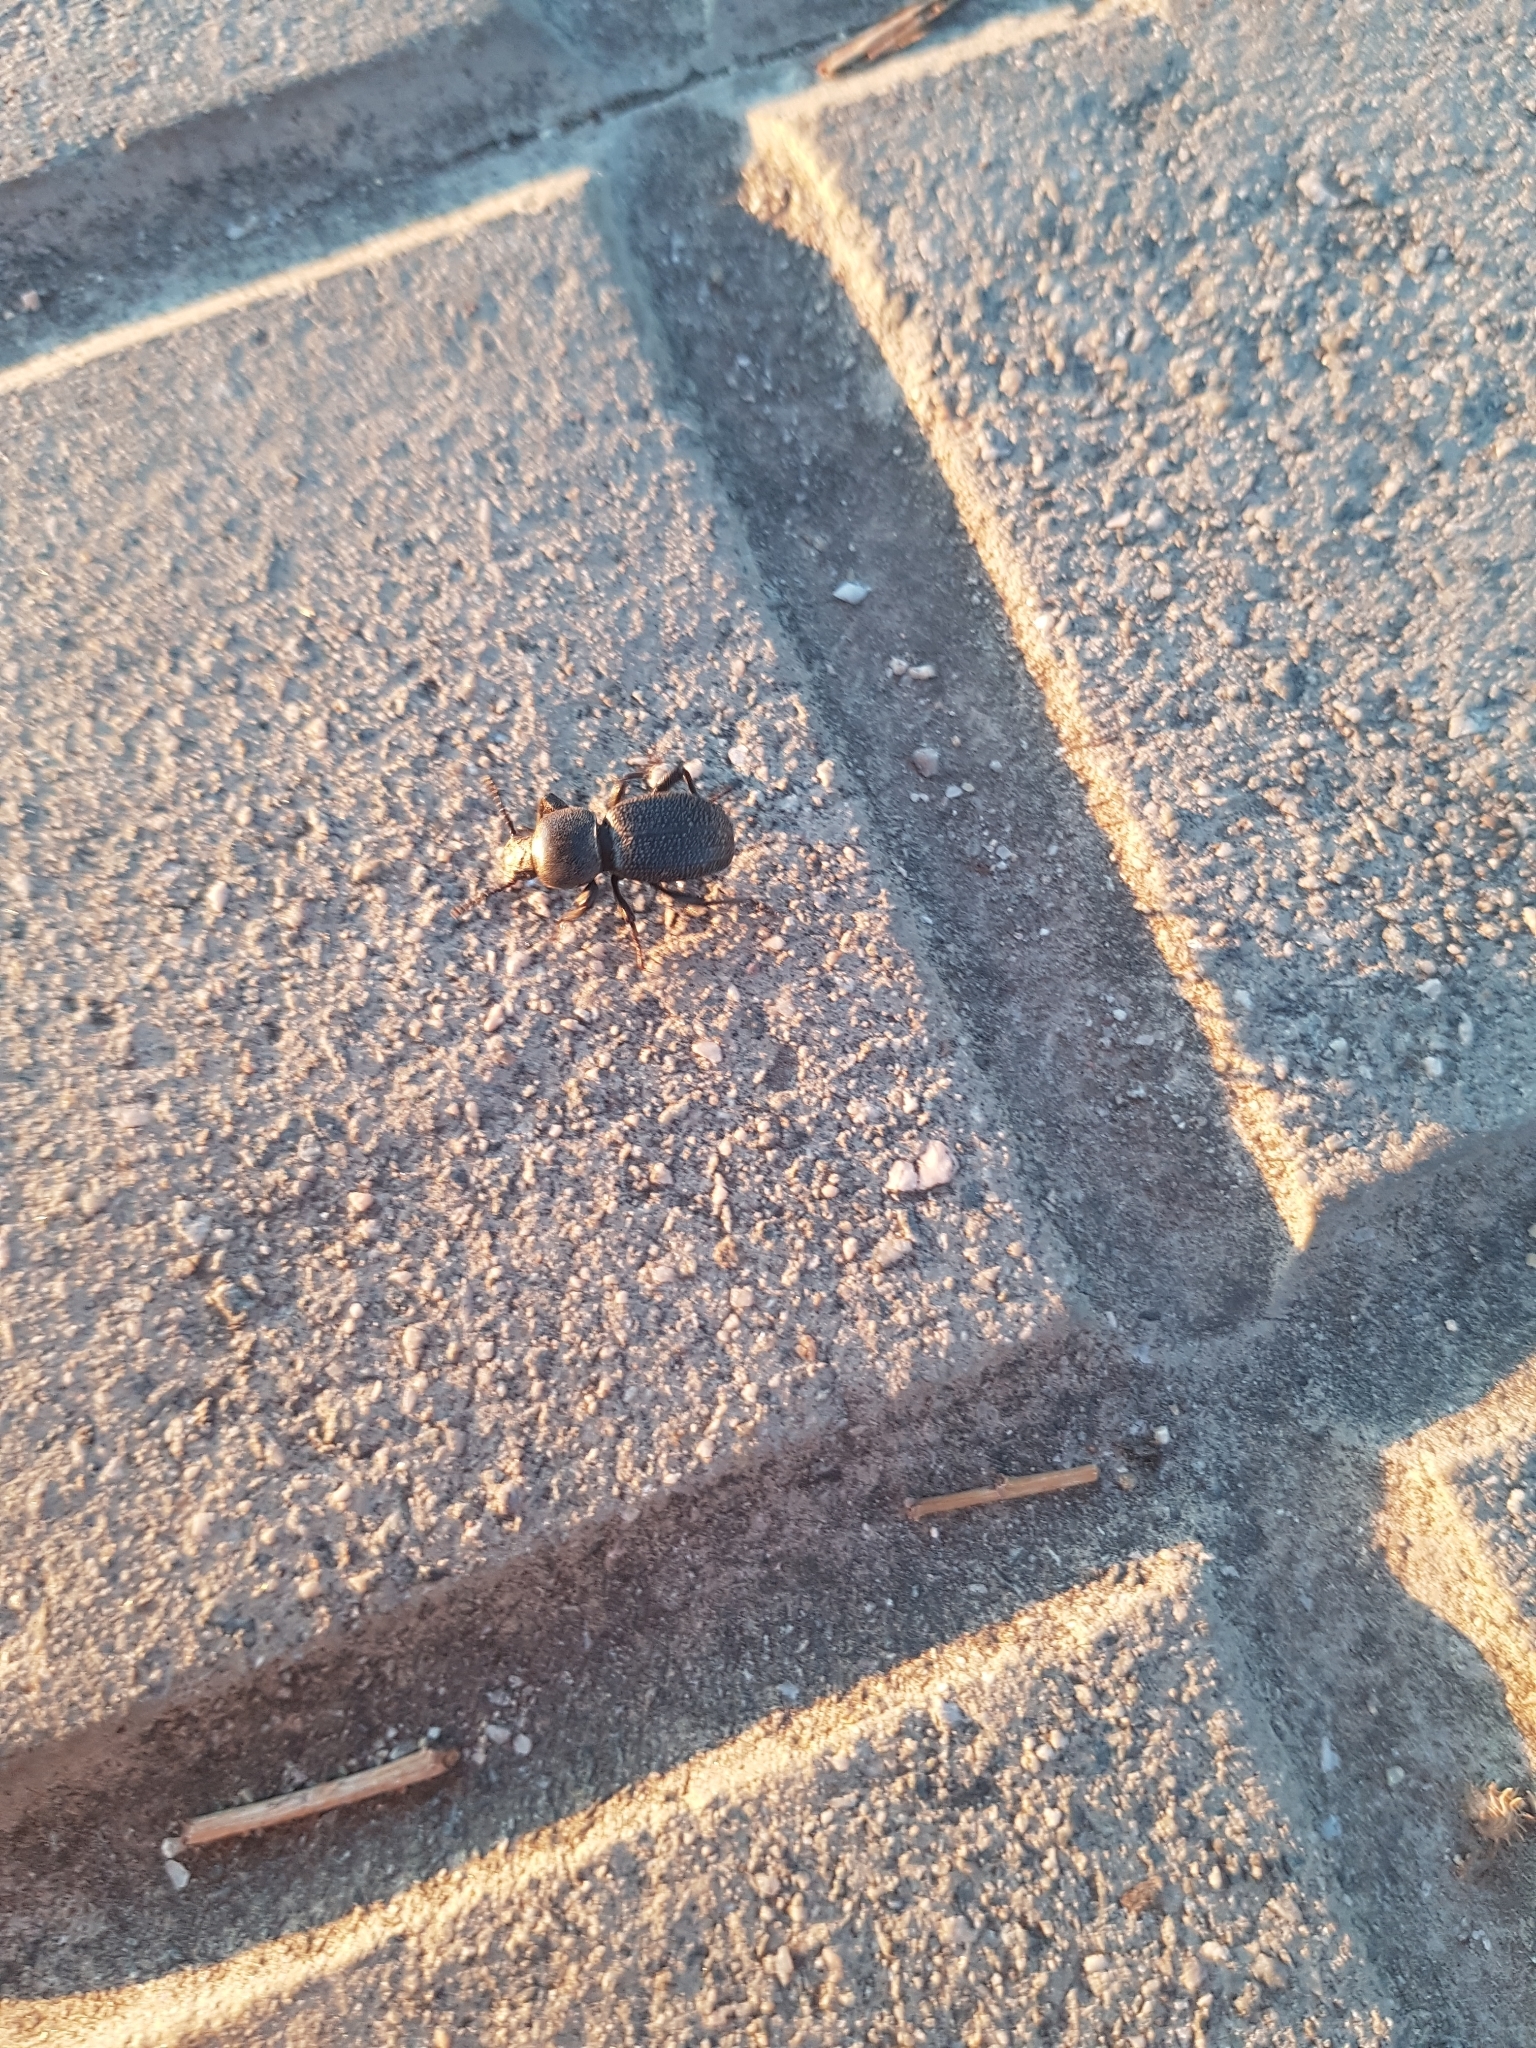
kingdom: Animalia
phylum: Arthropoda
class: Insecta
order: Coleoptera
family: Tenebrionidae
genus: Scaurus
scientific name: Scaurus uncinus
